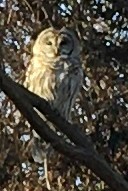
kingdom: Animalia
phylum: Chordata
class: Aves
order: Strigiformes
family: Strigidae
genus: Strix
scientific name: Strix varia
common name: Barred owl
